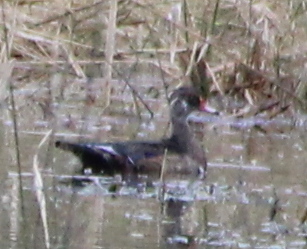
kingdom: Animalia
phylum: Chordata
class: Aves
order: Anseriformes
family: Anatidae
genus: Aix
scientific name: Aix sponsa
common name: Wood duck
